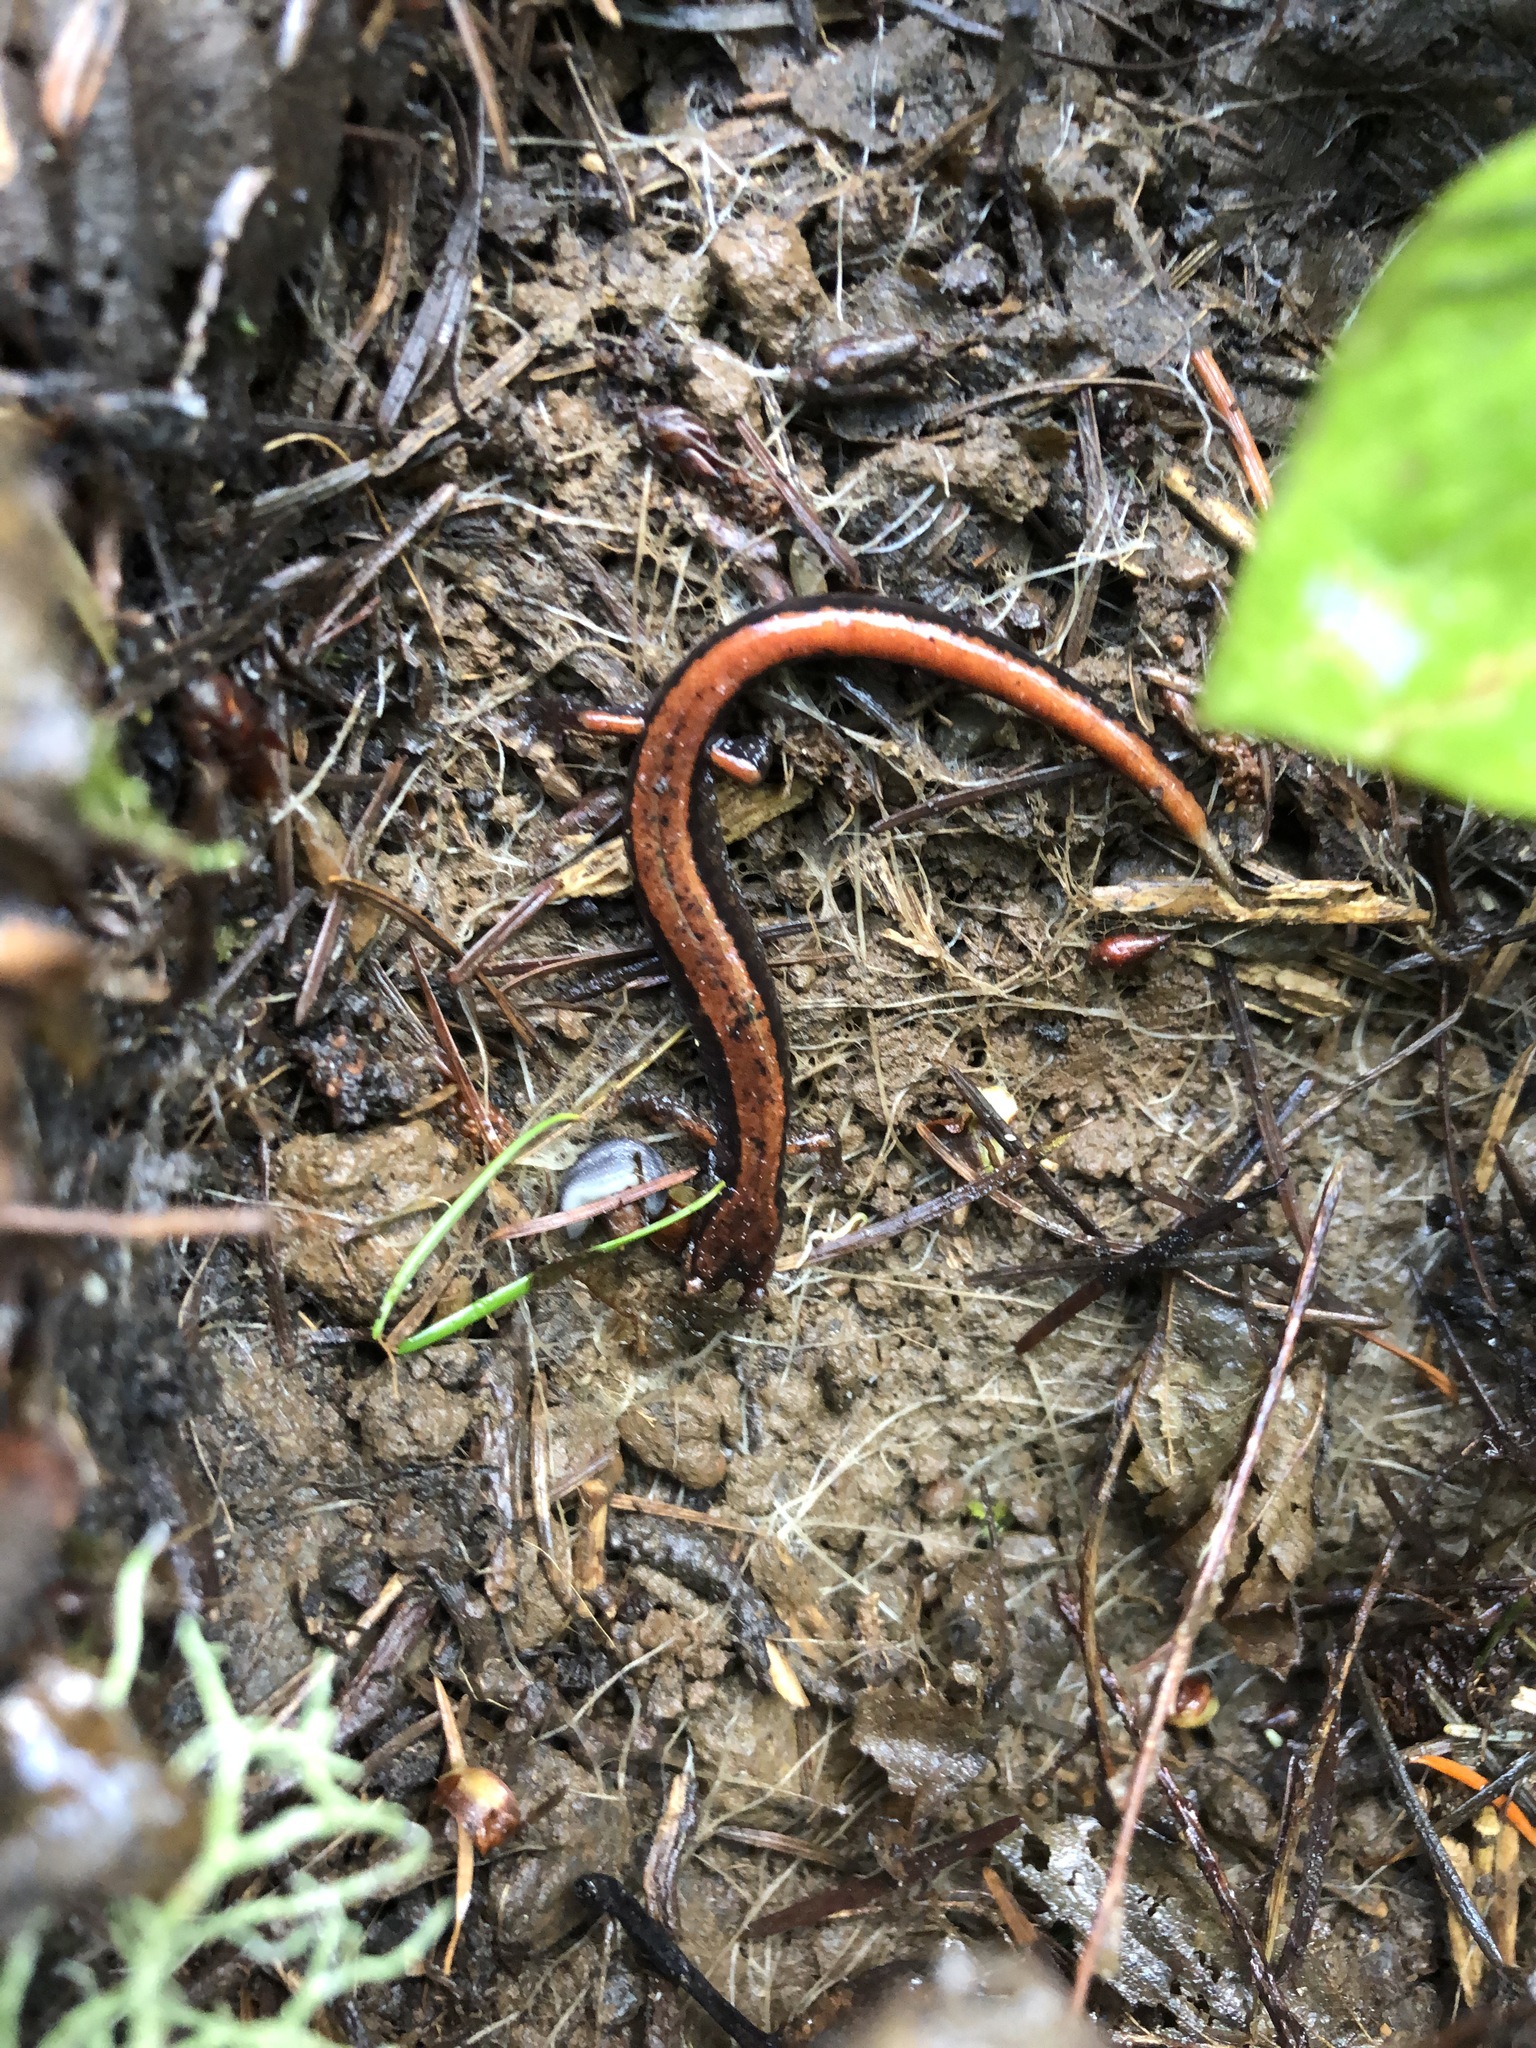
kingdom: Animalia
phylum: Chordata
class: Amphibia
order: Caudata
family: Plethodontidae
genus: Plethodon
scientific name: Plethodon vehiculum
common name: Western red-backed salamander
